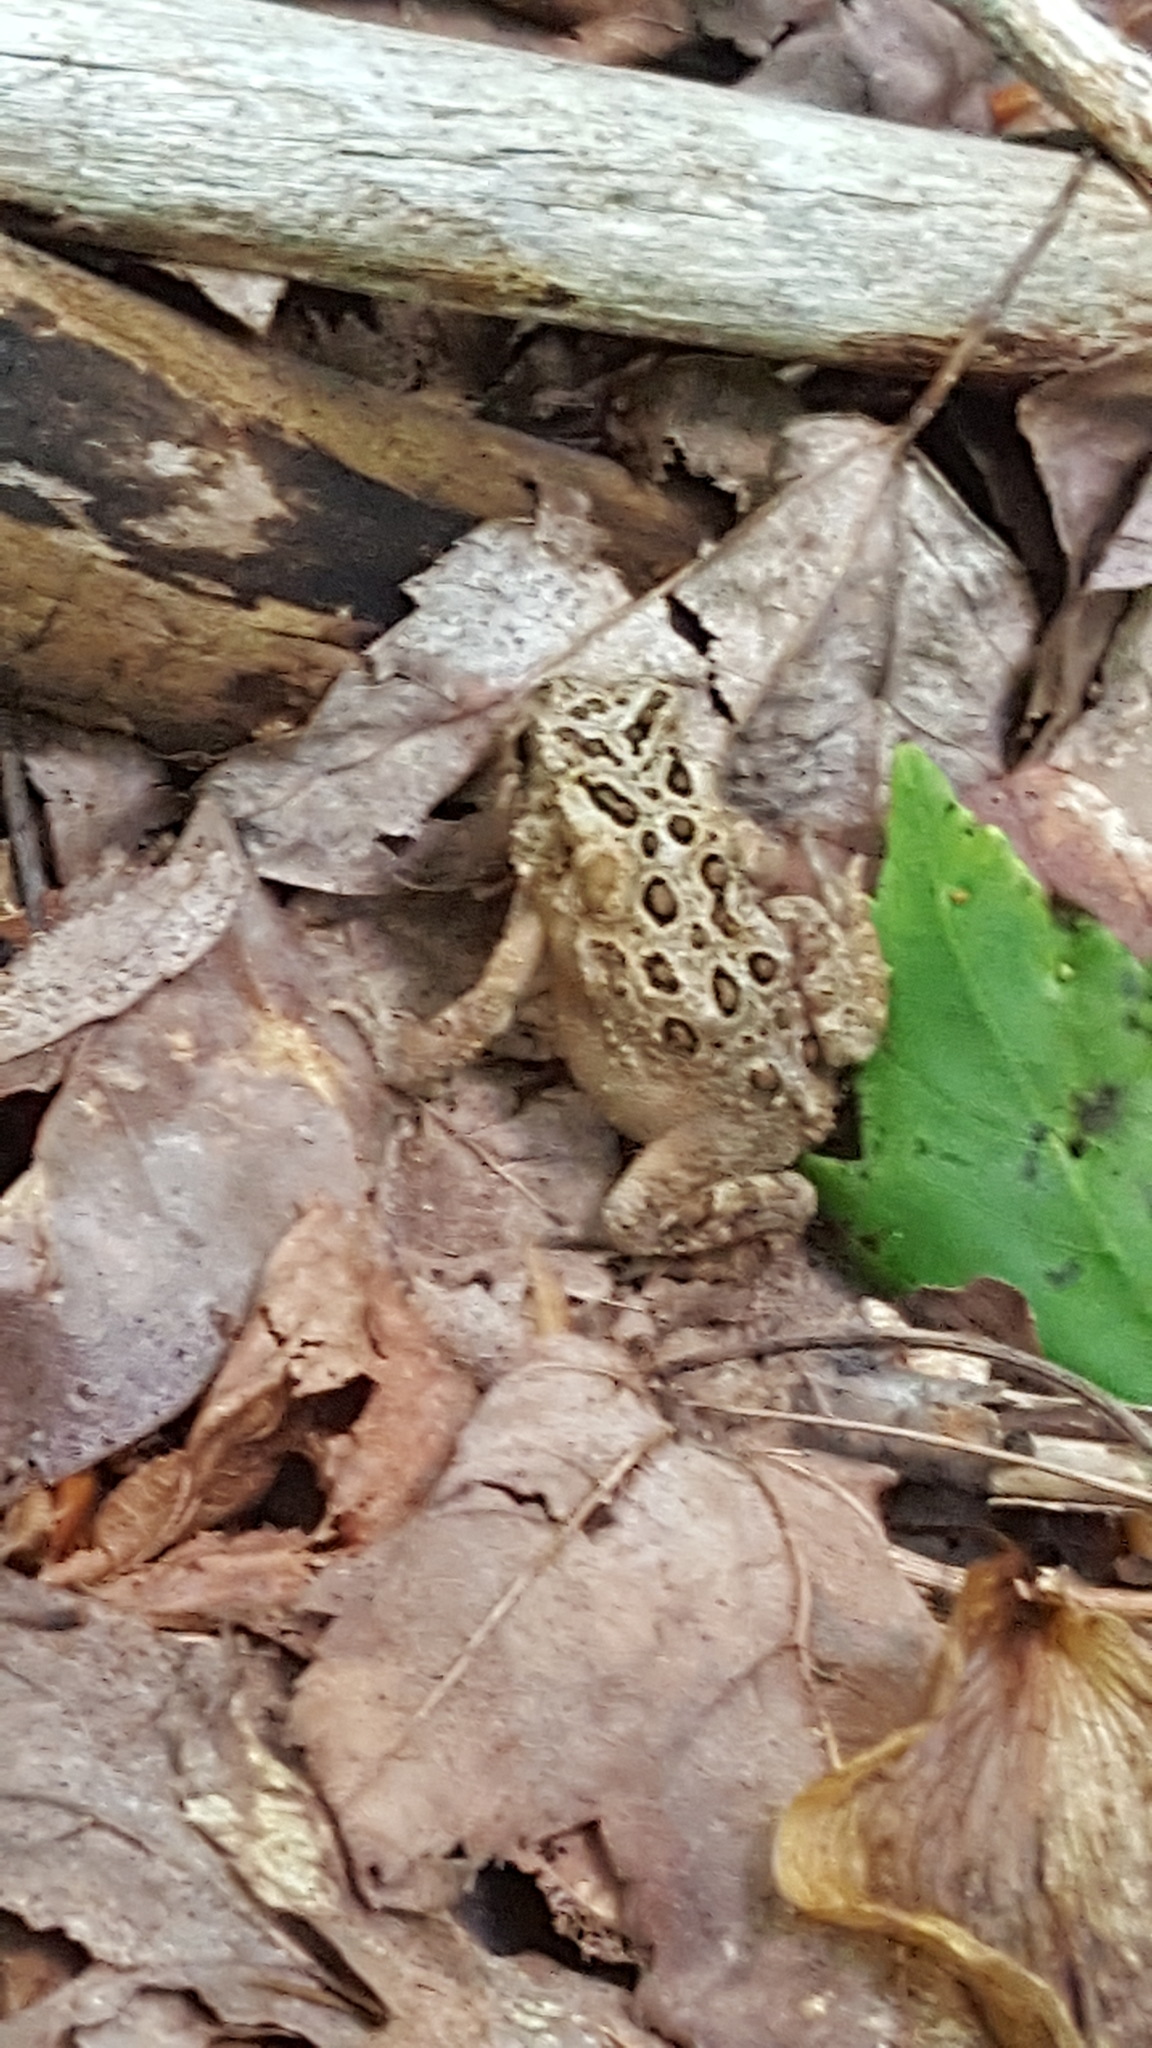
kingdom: Animalia
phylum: Chordata
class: Amphibia
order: Anura
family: Bufonidae
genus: Anaxyrus
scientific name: Anaxyrus americanus
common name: American toad
